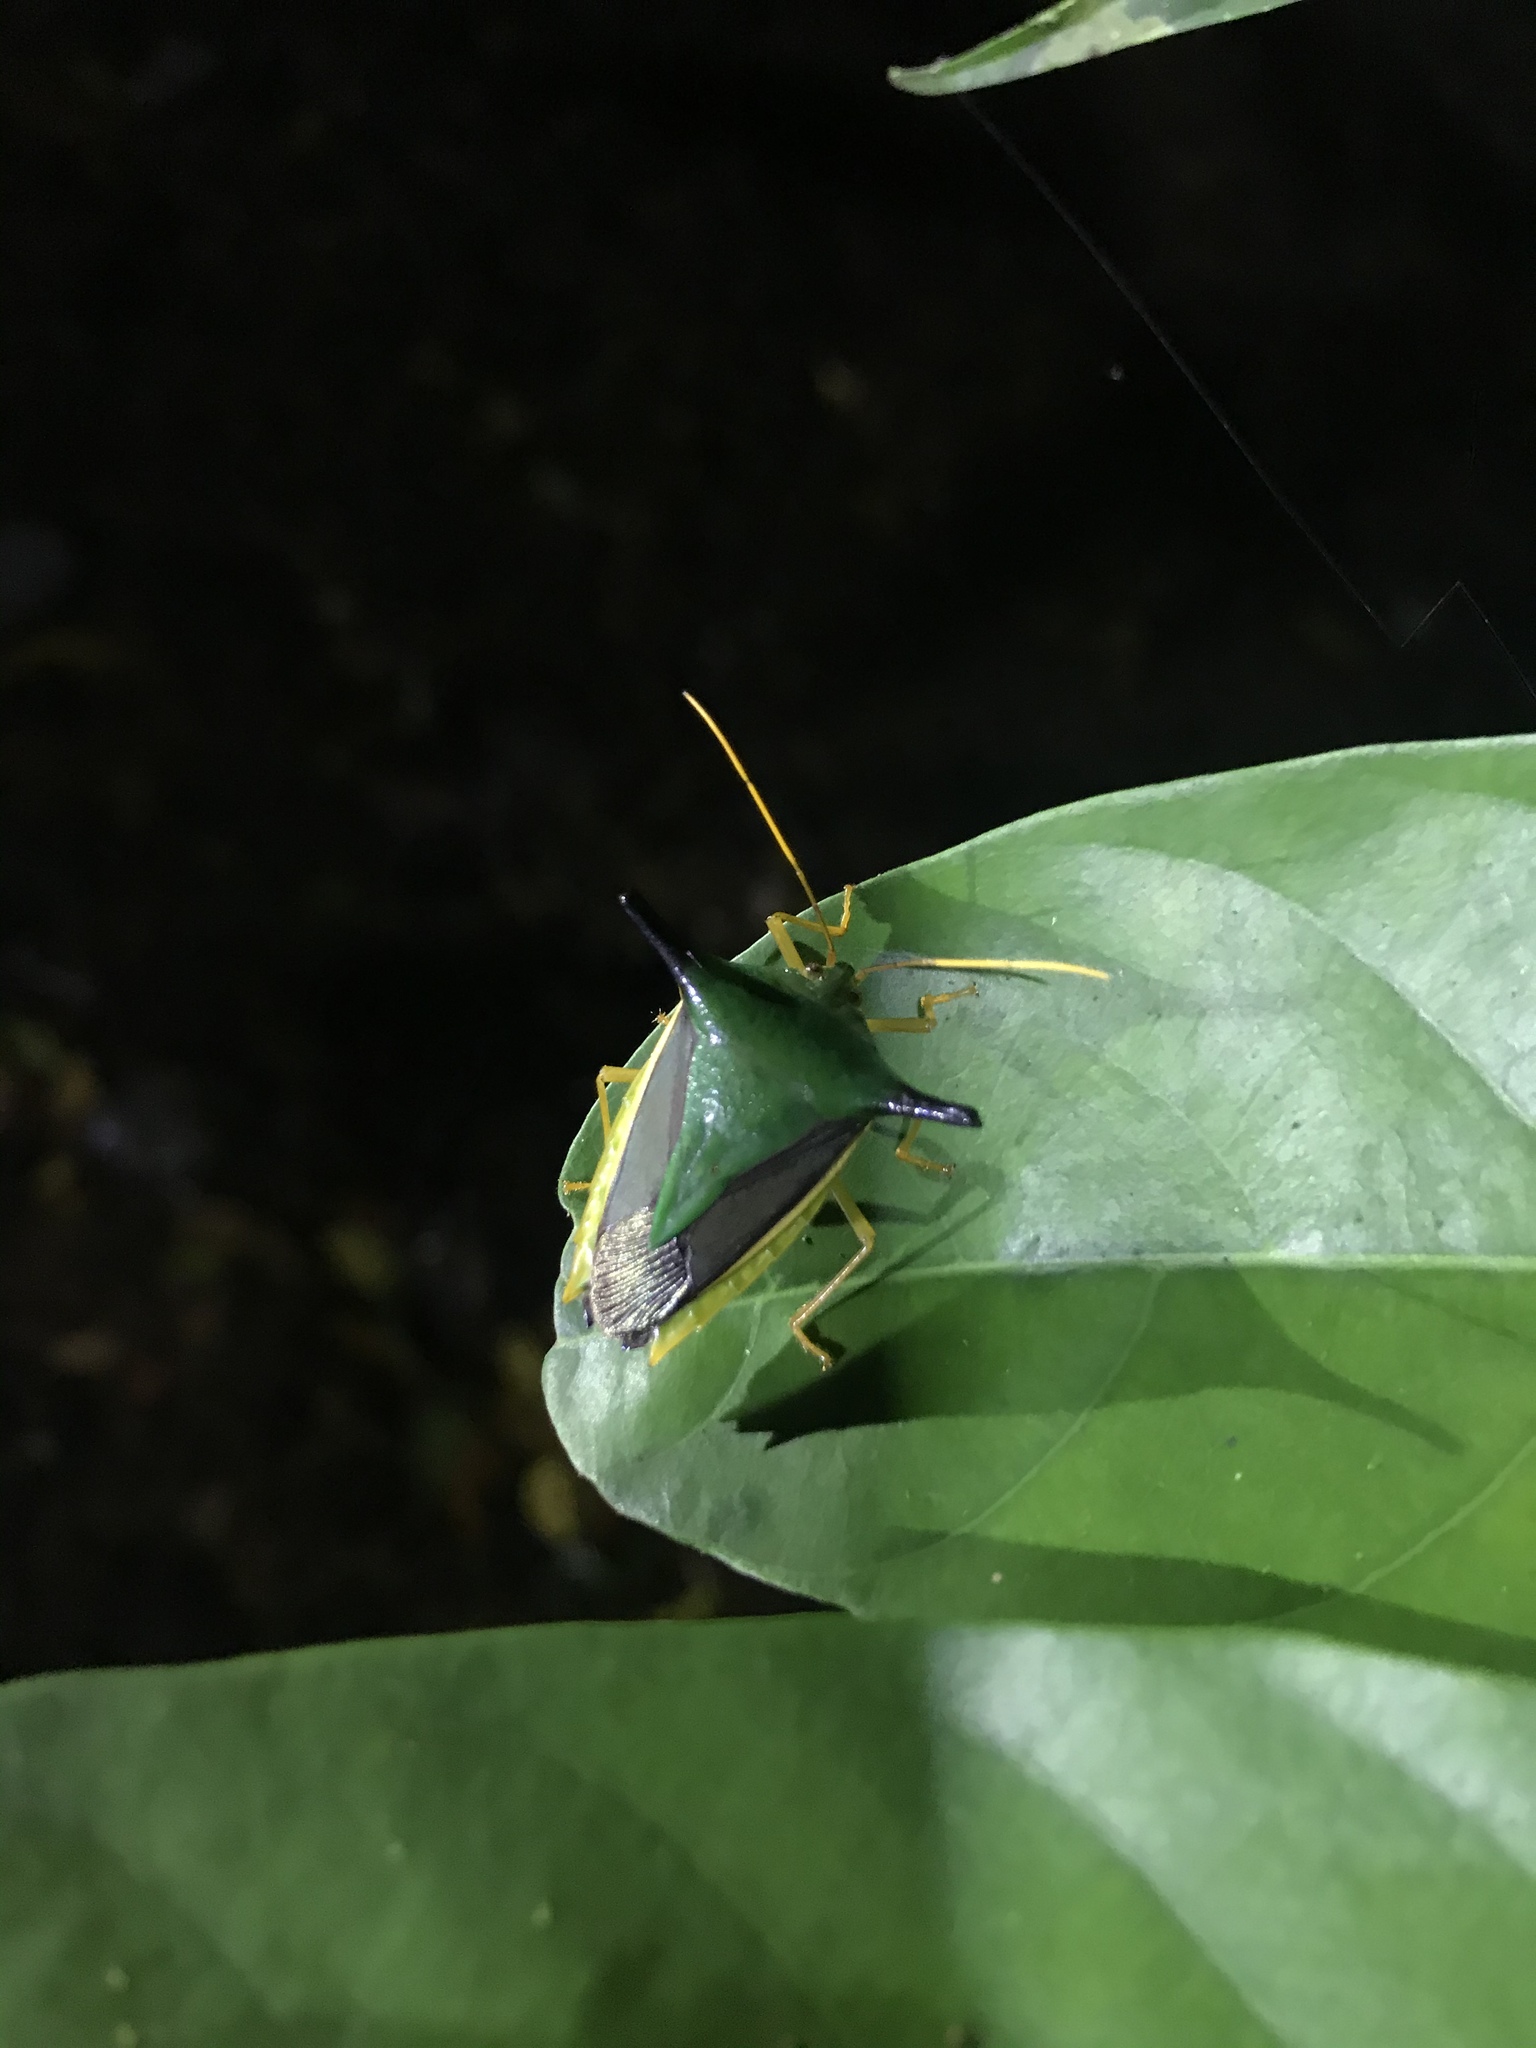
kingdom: Animalia
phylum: Arthropoda
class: Insecta
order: Hemiptera
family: Pentatomidae
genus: Edessa
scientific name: Edessa
